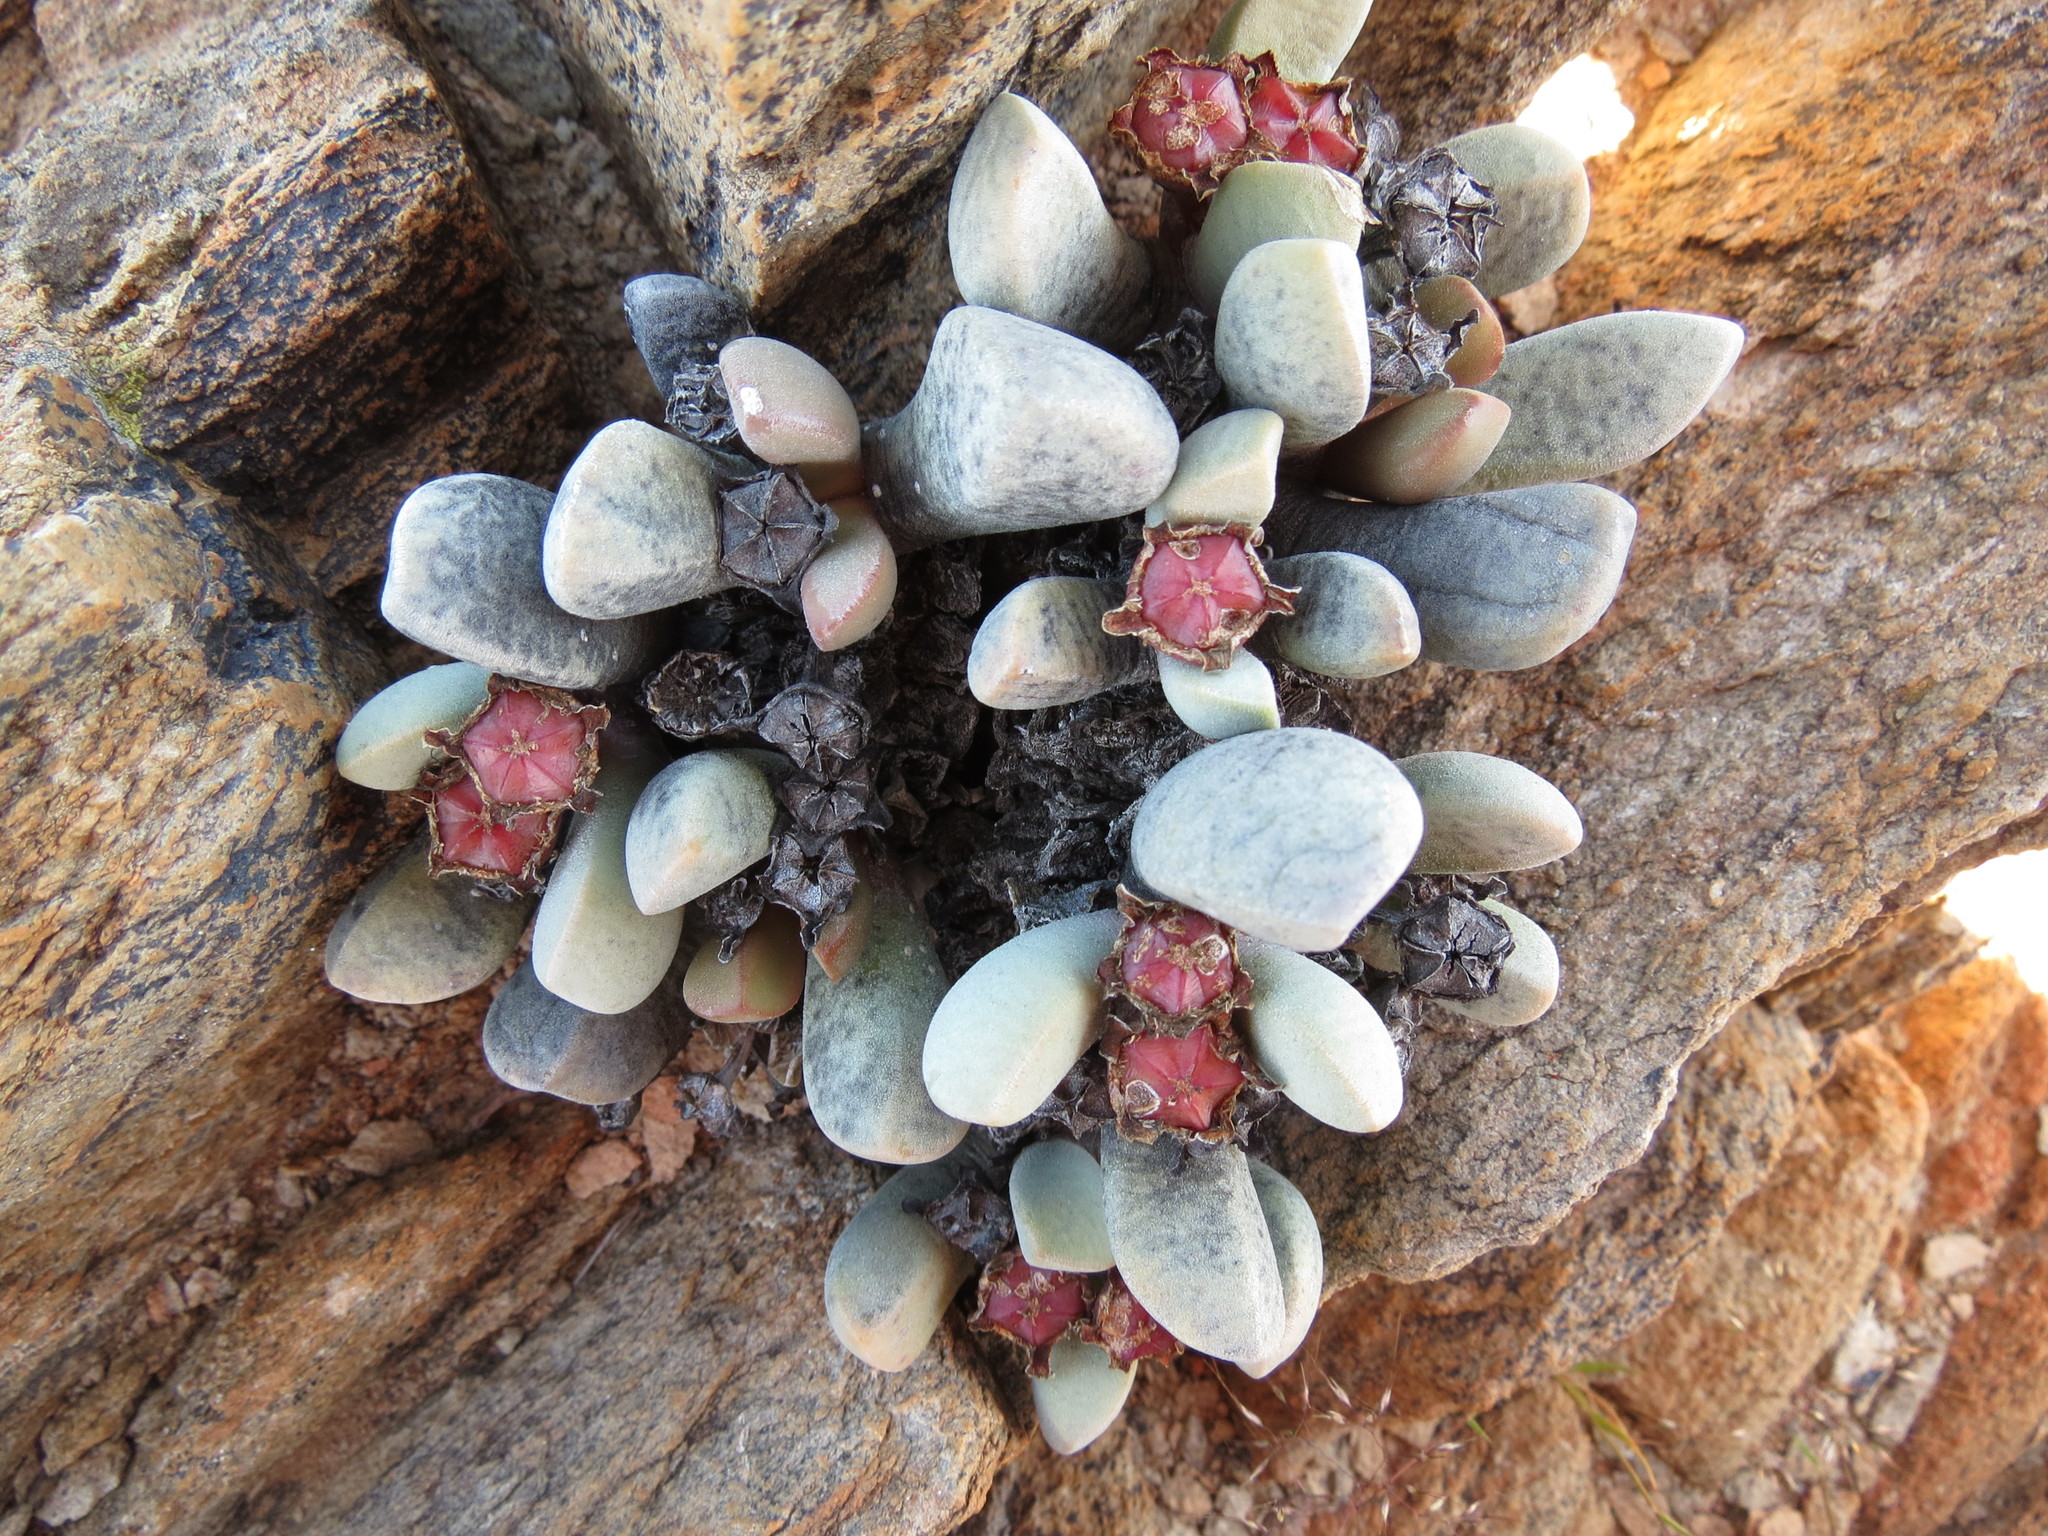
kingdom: Plantae
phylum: Tracheophyta
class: Magnoliopsida
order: Caryophyllales
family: Aizoaceae
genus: Cerochlamys
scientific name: Cerochlamys pachyphylla
